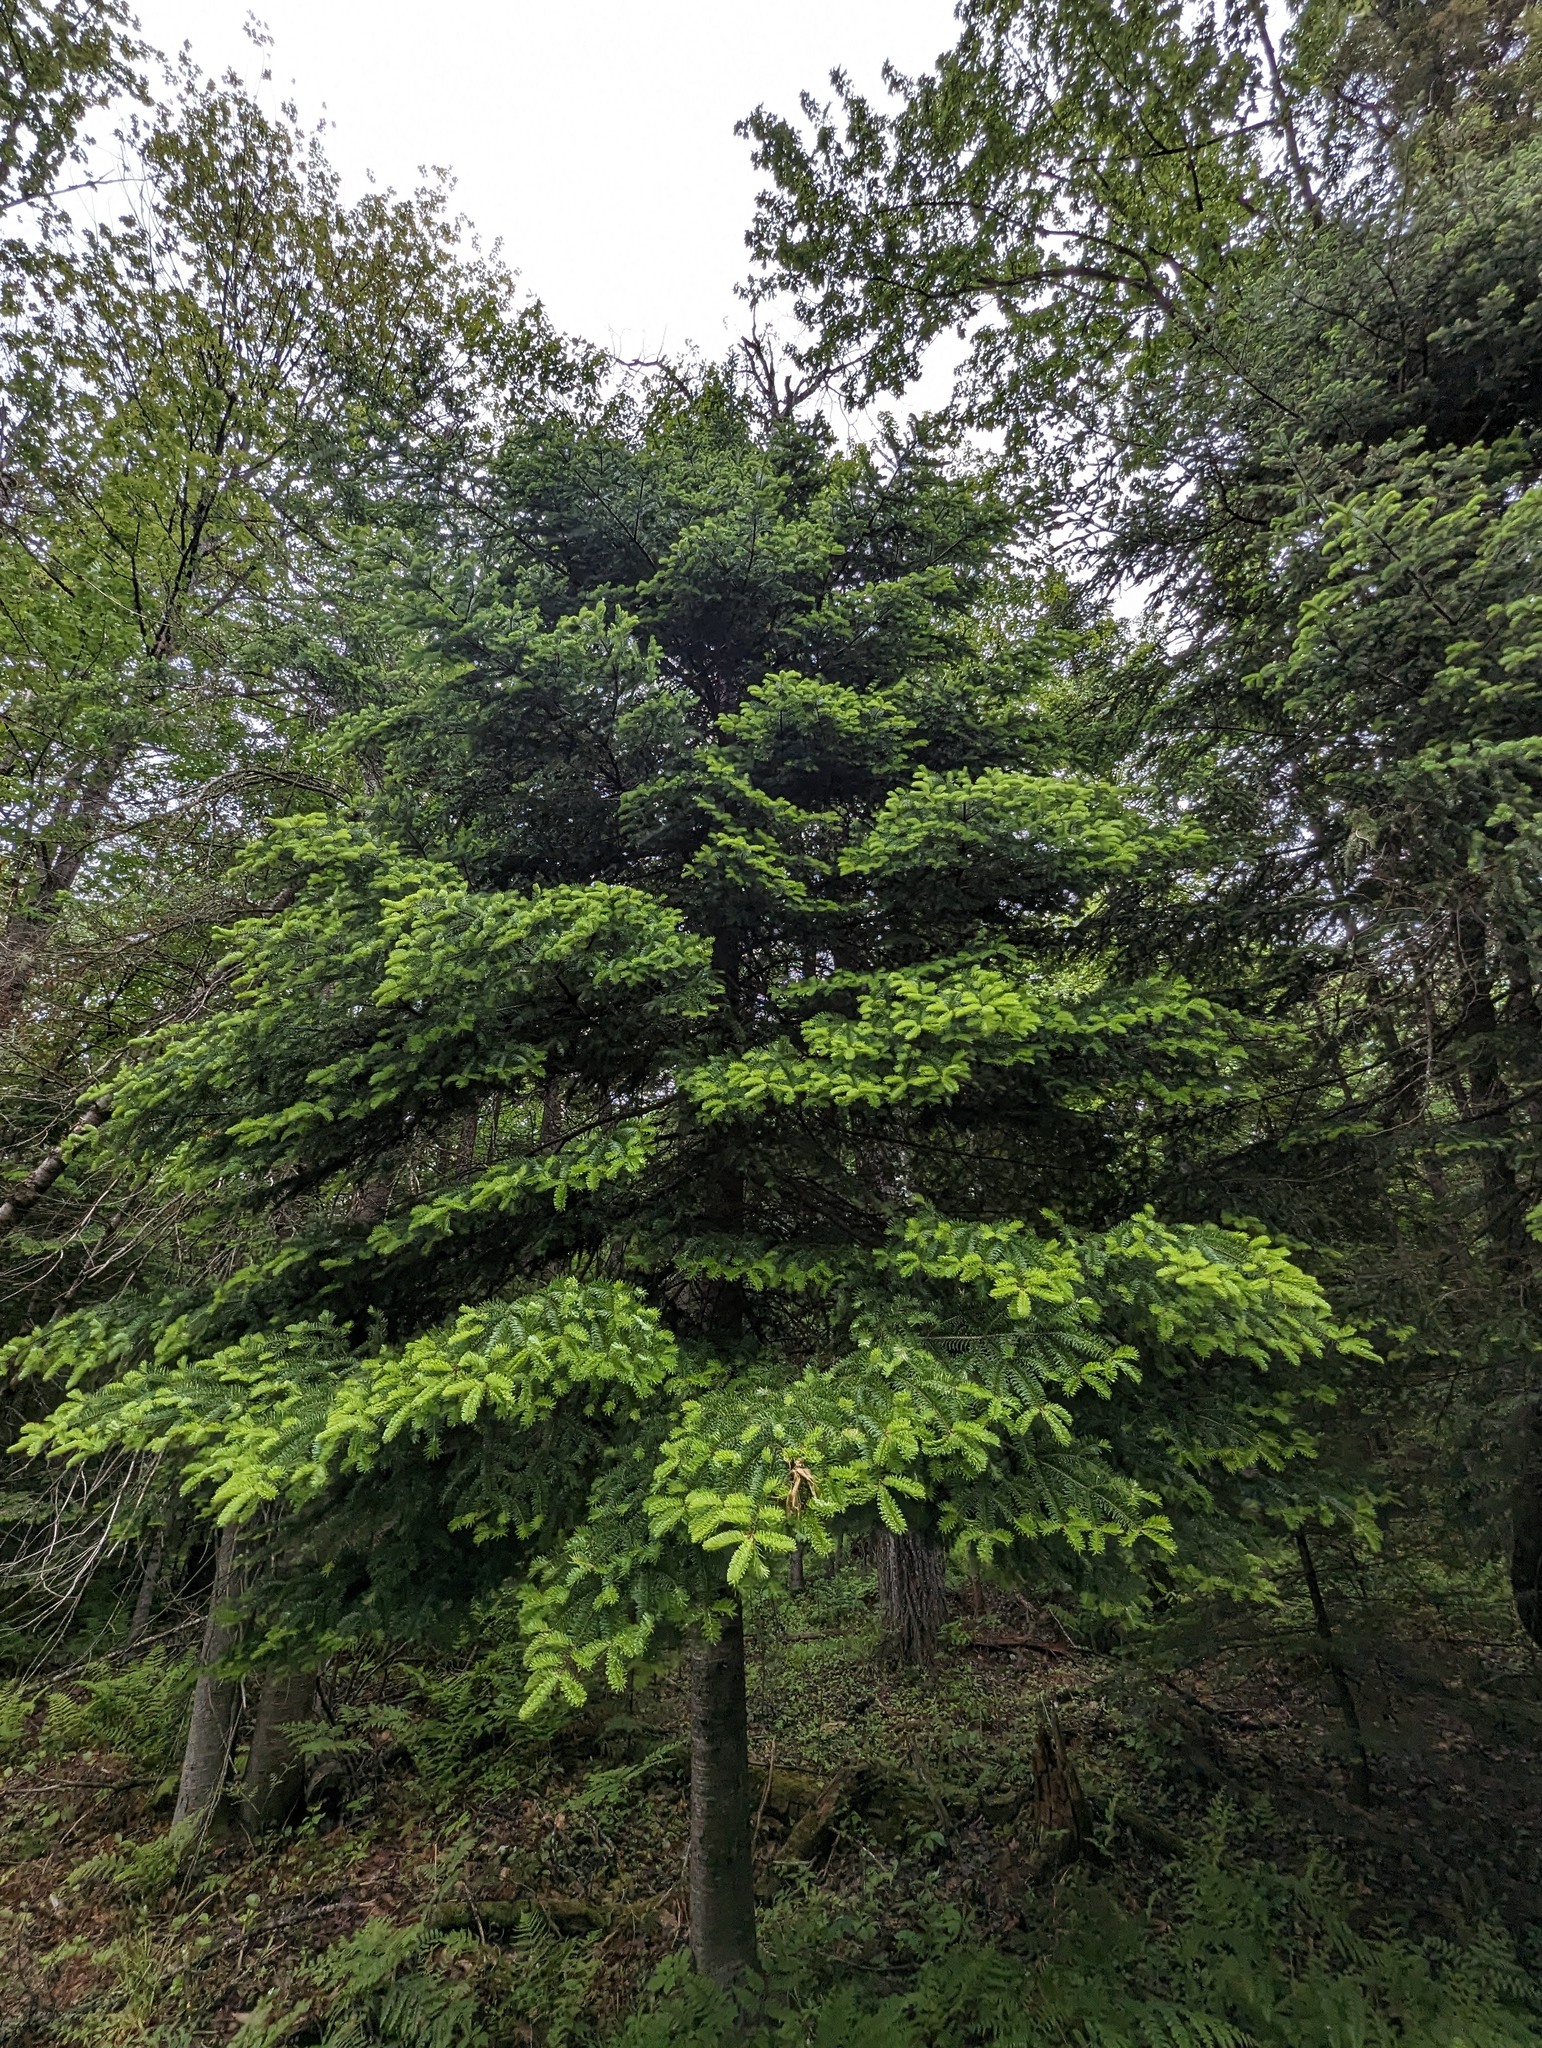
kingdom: Plantae
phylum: Tracheophyta
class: Pinopsida
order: Pinales
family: Pinaceae
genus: Abies
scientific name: Abies balsamea
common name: Balsam fir
